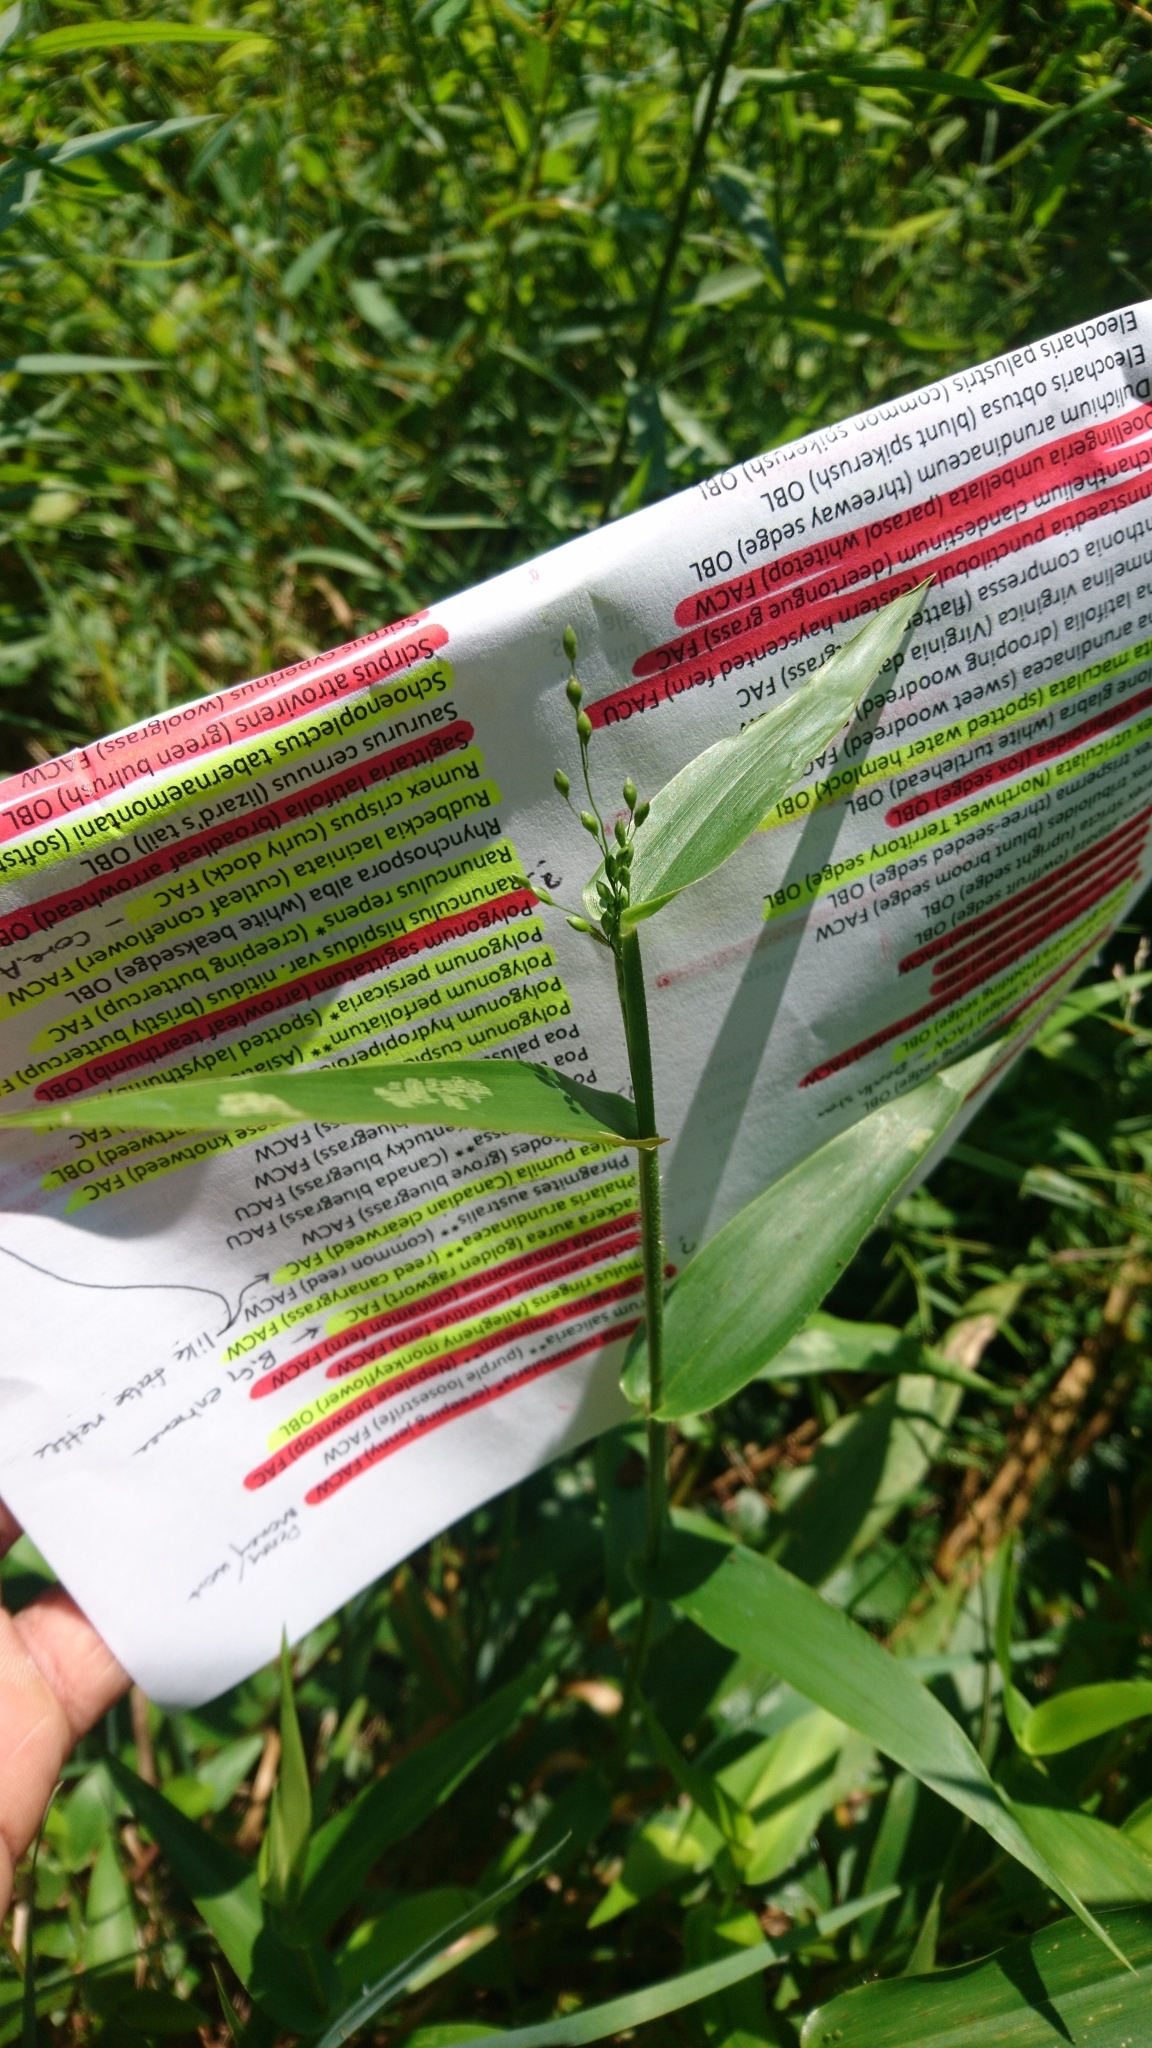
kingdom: Plantae
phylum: Tracheophyta
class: Liliopsida
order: Poales
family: Poaceae
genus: Dichanthelium
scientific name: Dichanthelium clandestinum
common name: Deer-tongue grass
